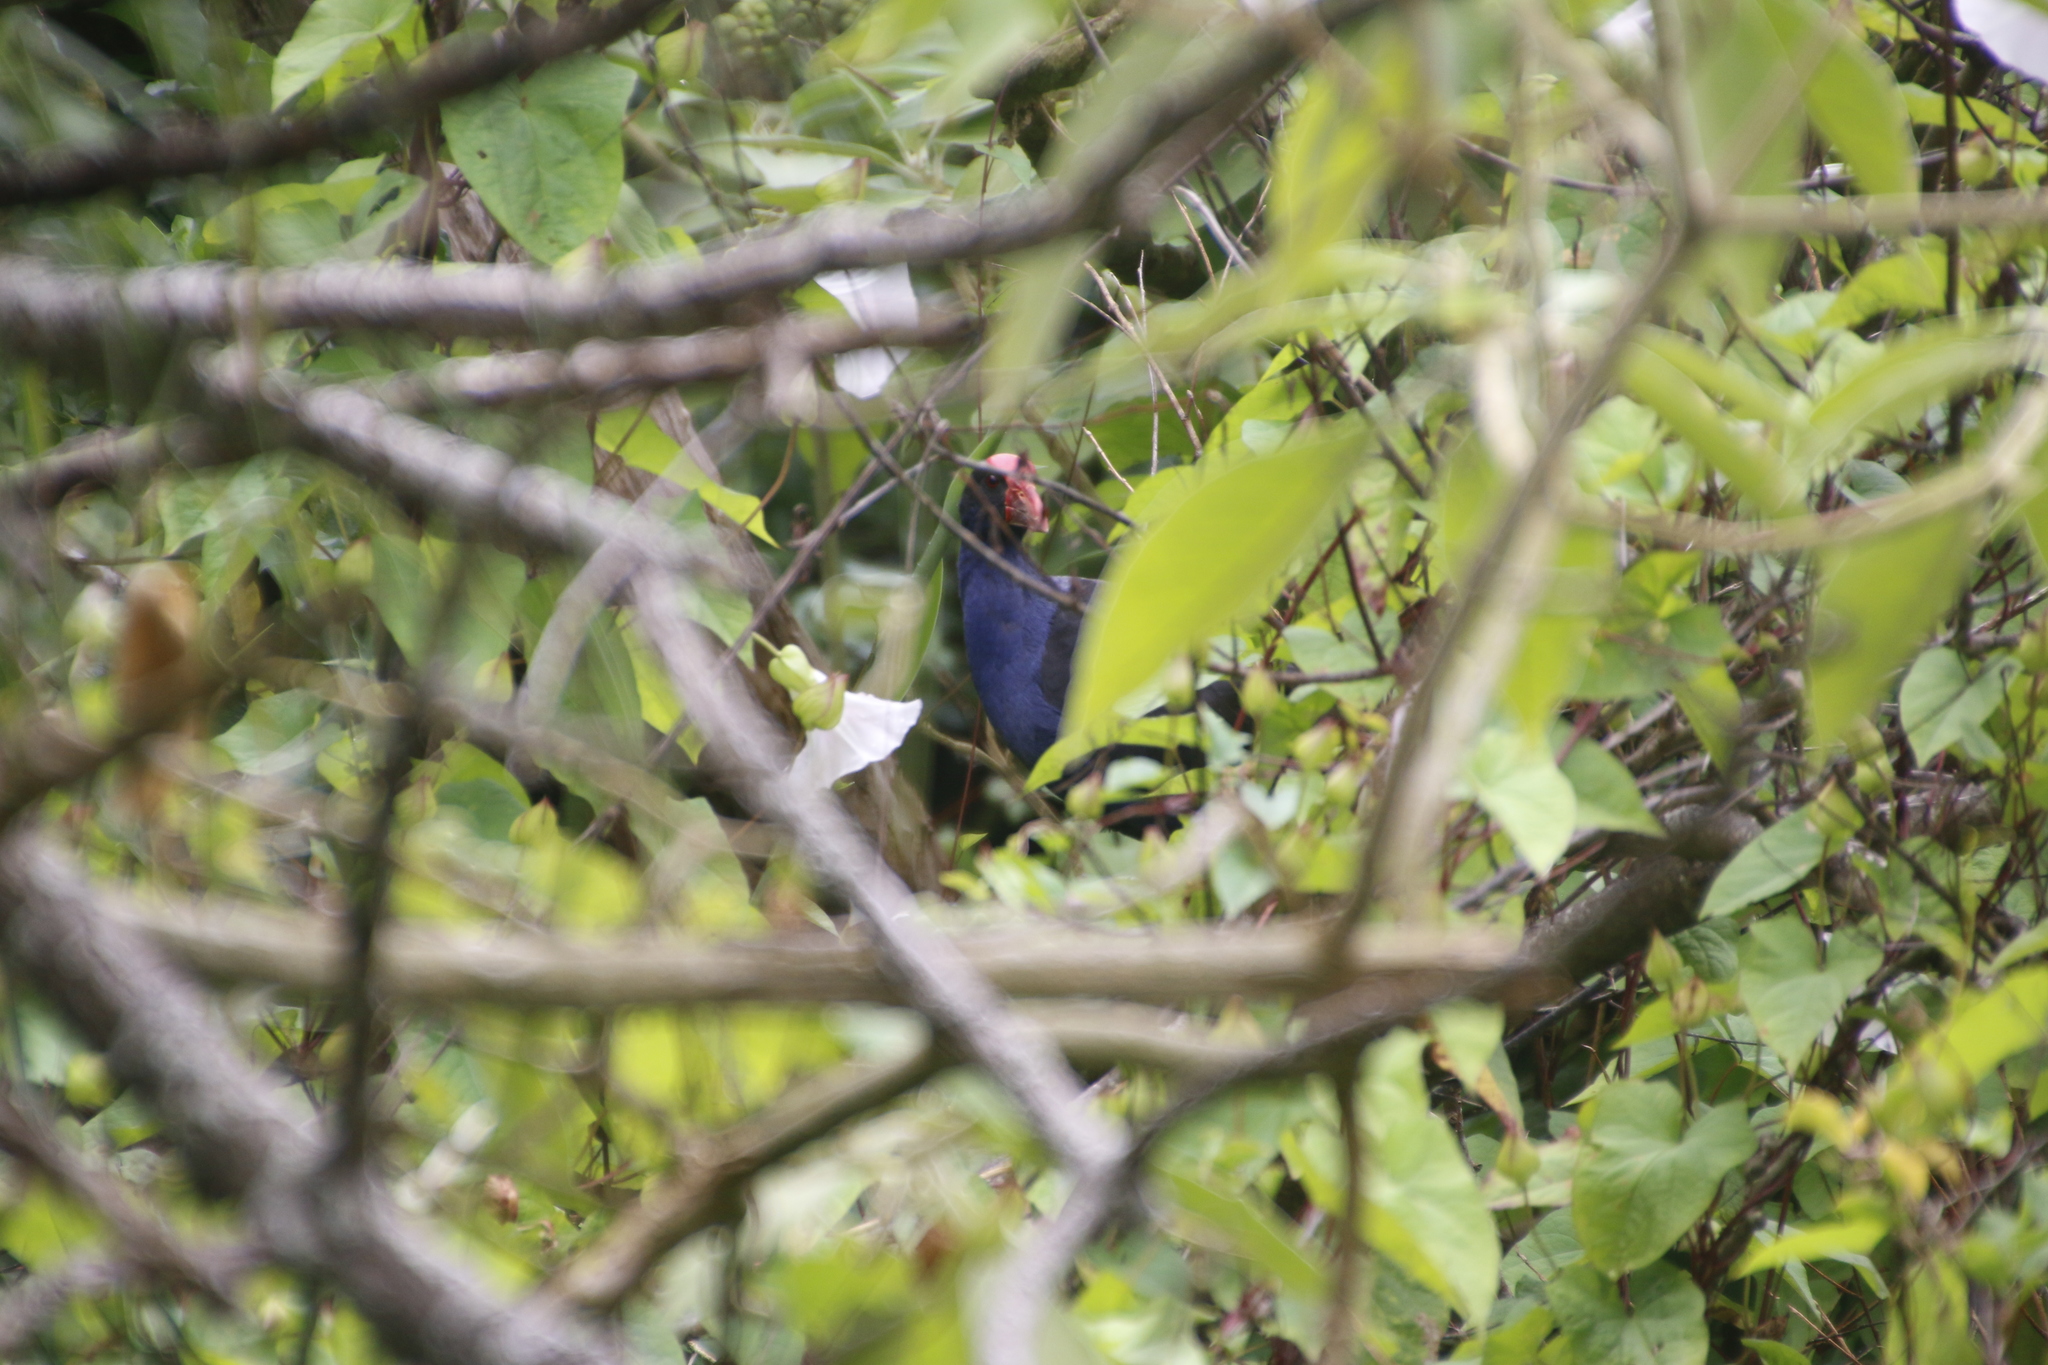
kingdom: Animalia
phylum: Chordata
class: Aves
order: Gruiformes
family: Rallidae
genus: Porphyrio
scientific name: Porphyrio melanotus
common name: Australasian swamphen
